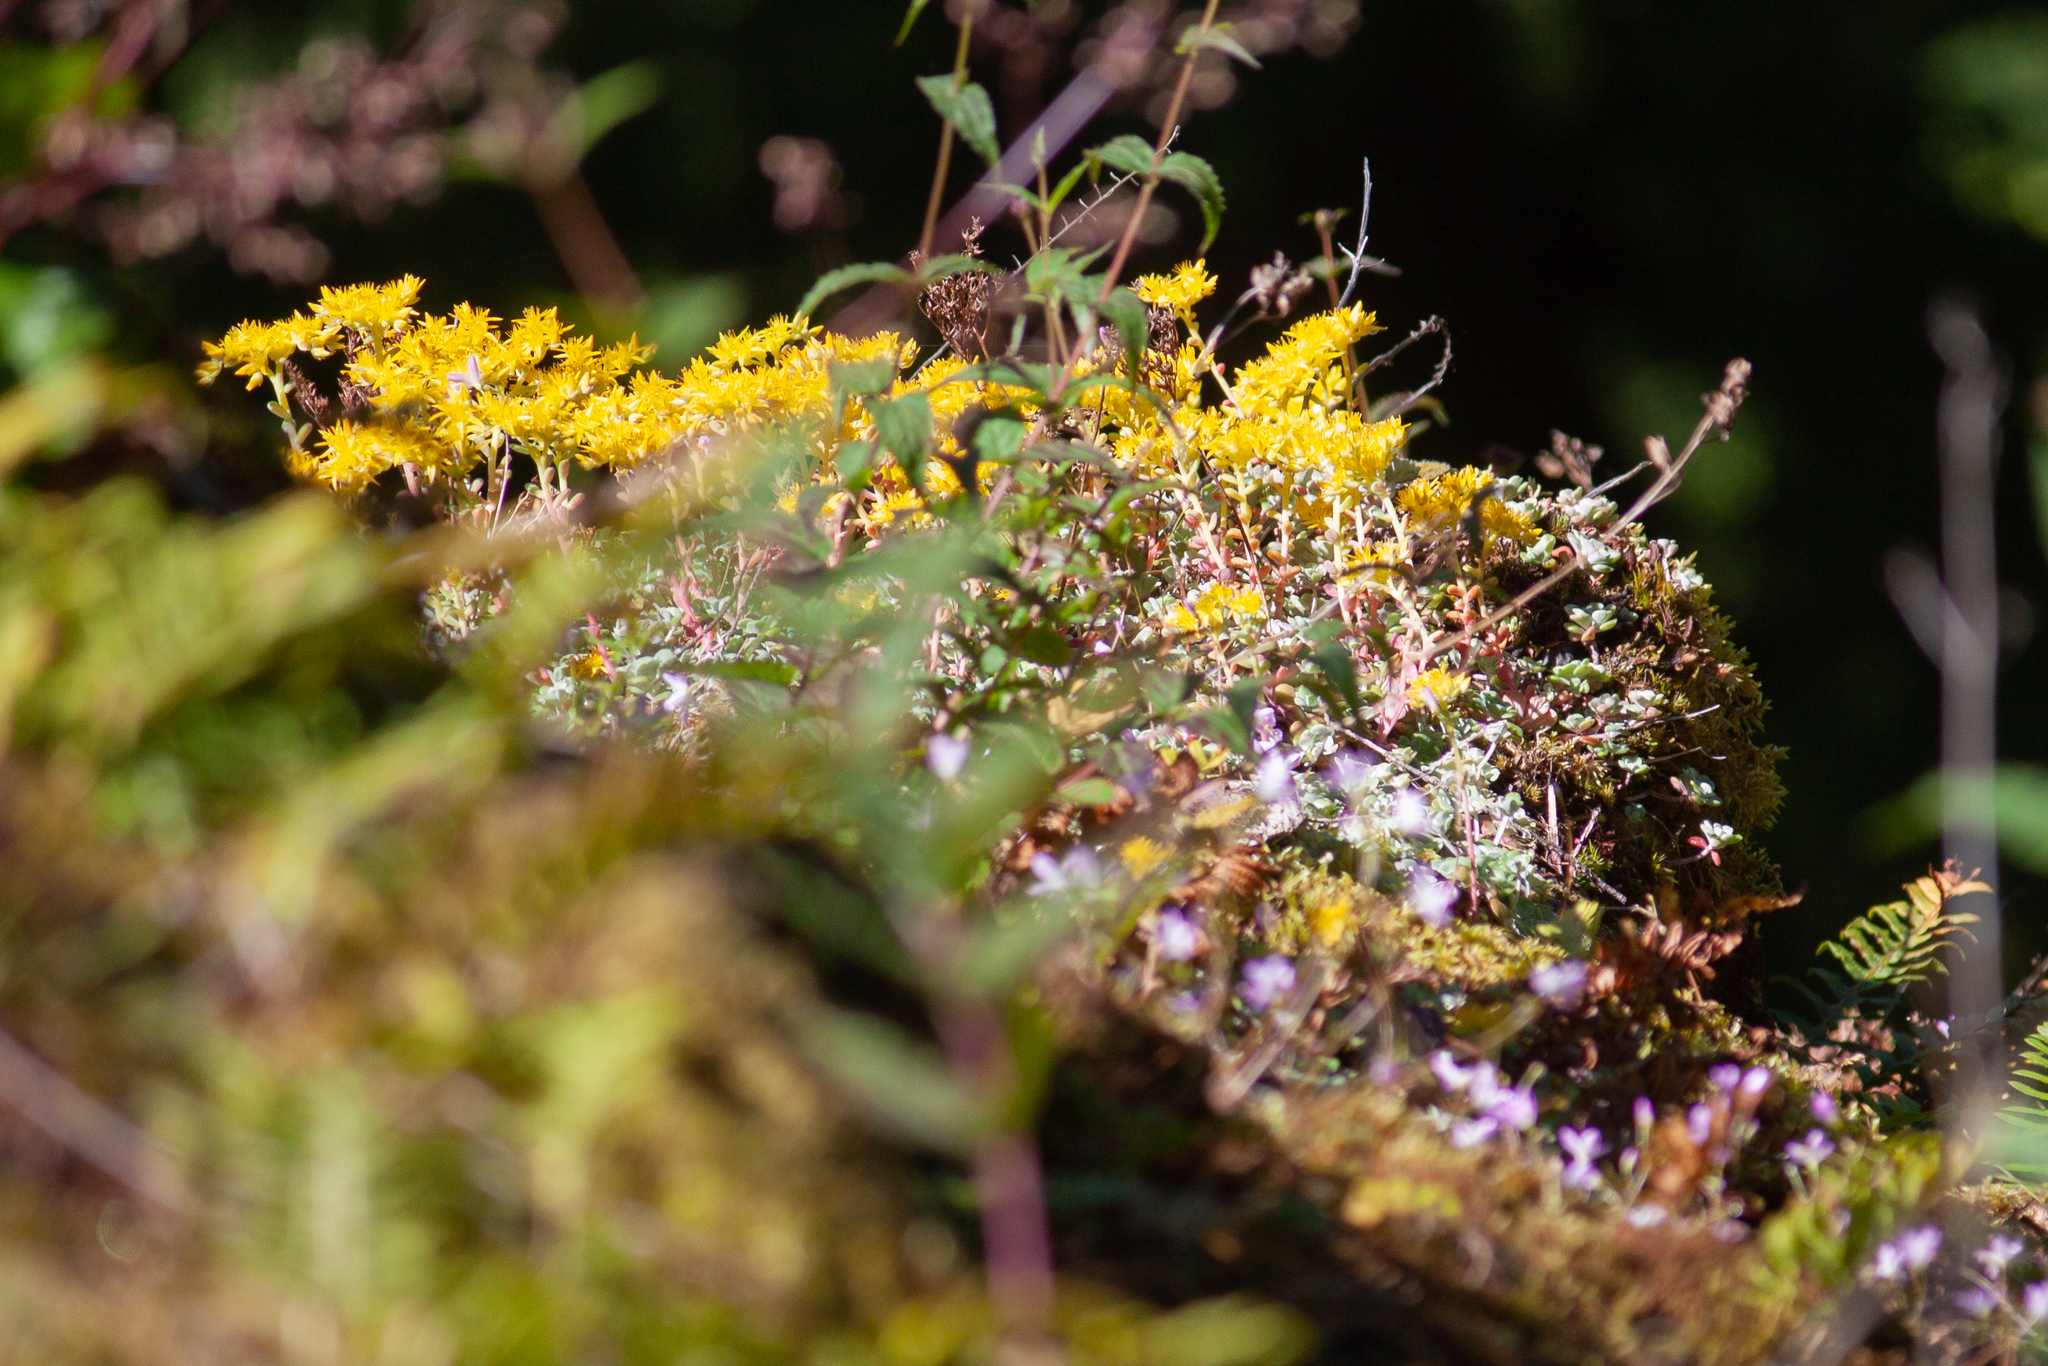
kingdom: Plantae
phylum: Tracheophyta
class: Magnoliopsida
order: Saxifragales
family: Crassulaceae
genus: Sedum
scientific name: Sedum spathulifolium
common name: Colorado stonecrop
